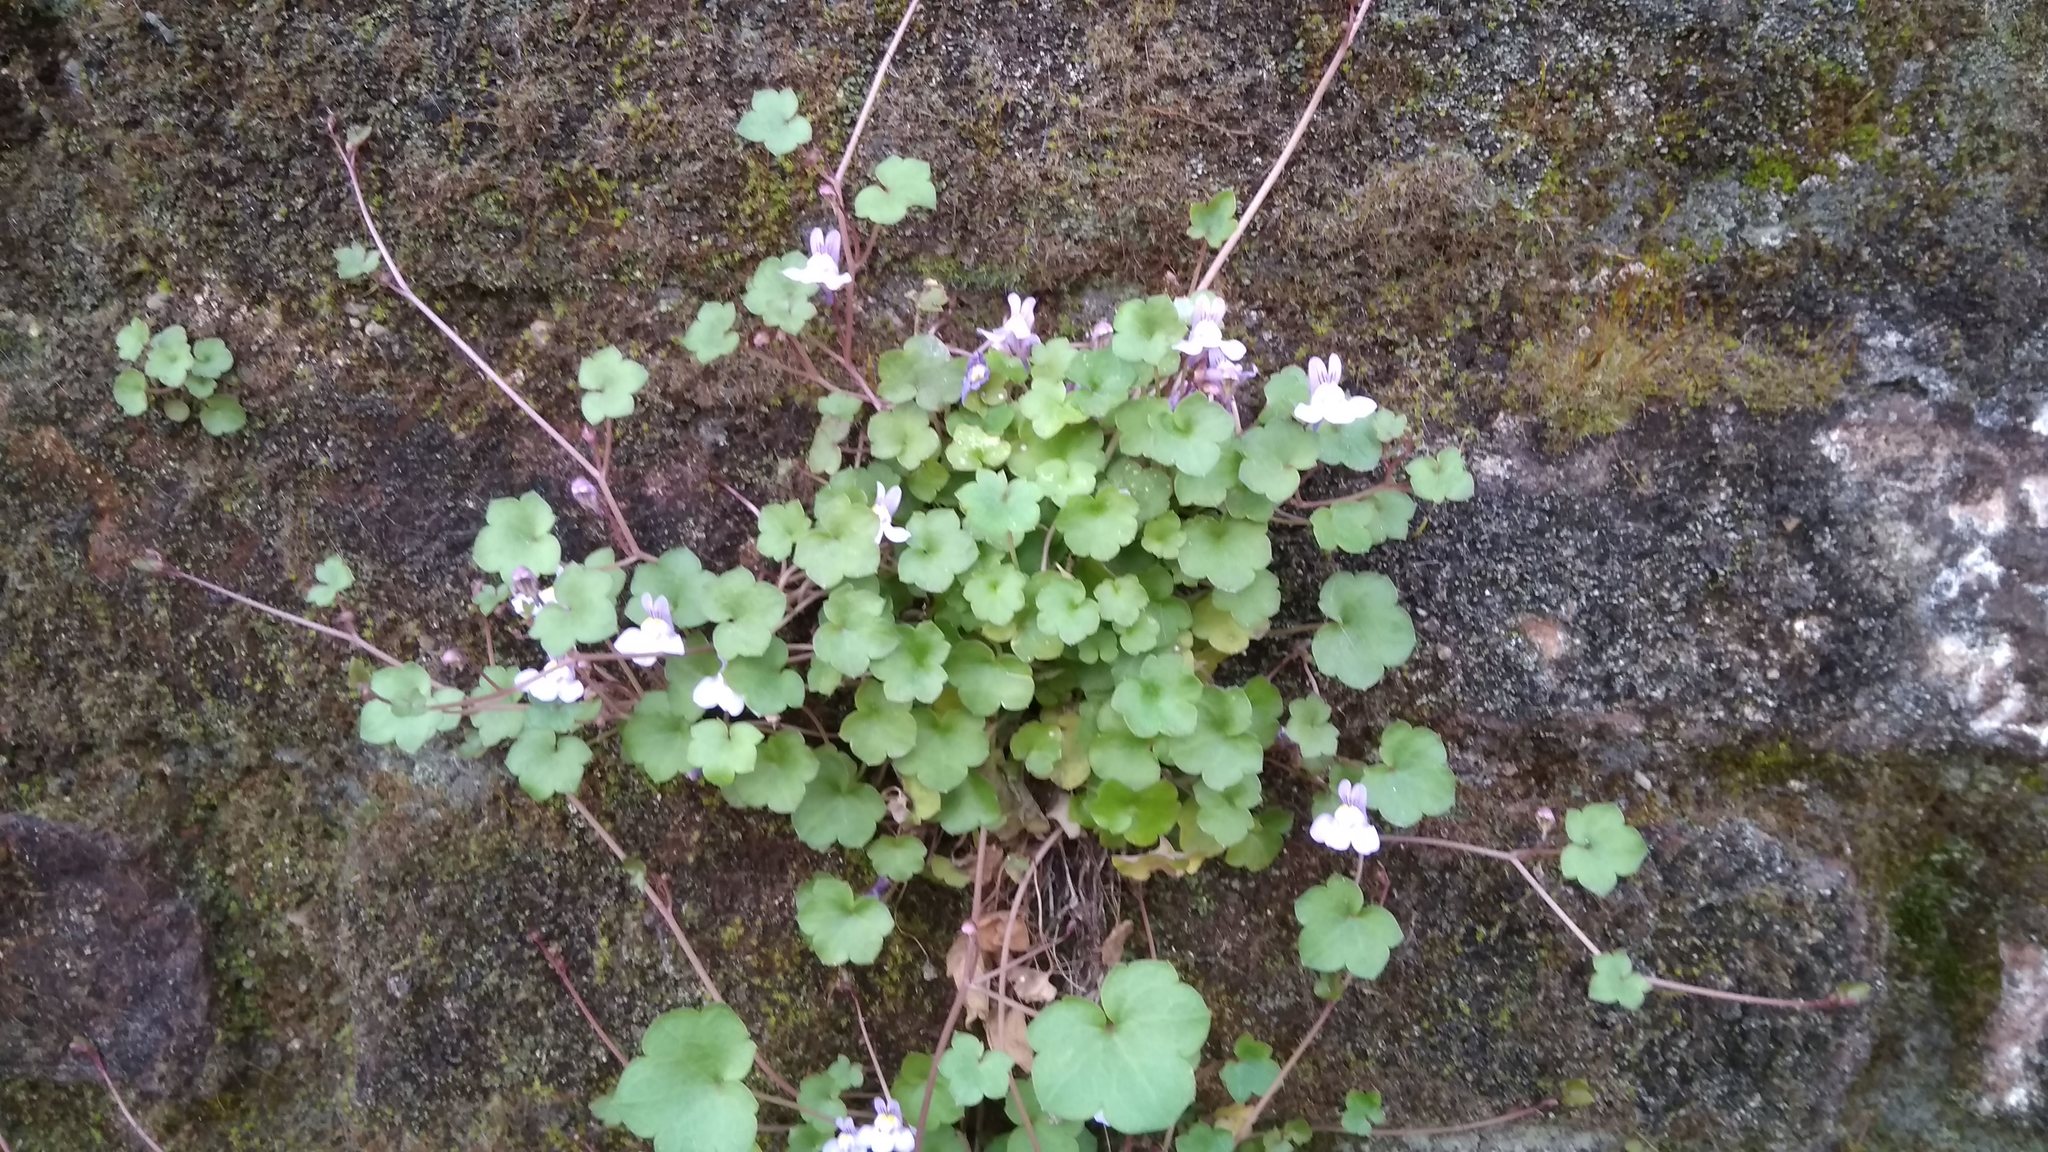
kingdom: Plantae
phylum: Tracheophyta
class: Magnoliopsida
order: Lamiales
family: Plantaginaceae
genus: Cymbalaria
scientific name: Cymbalaria muralis
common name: Ivy-leaved toadflax
